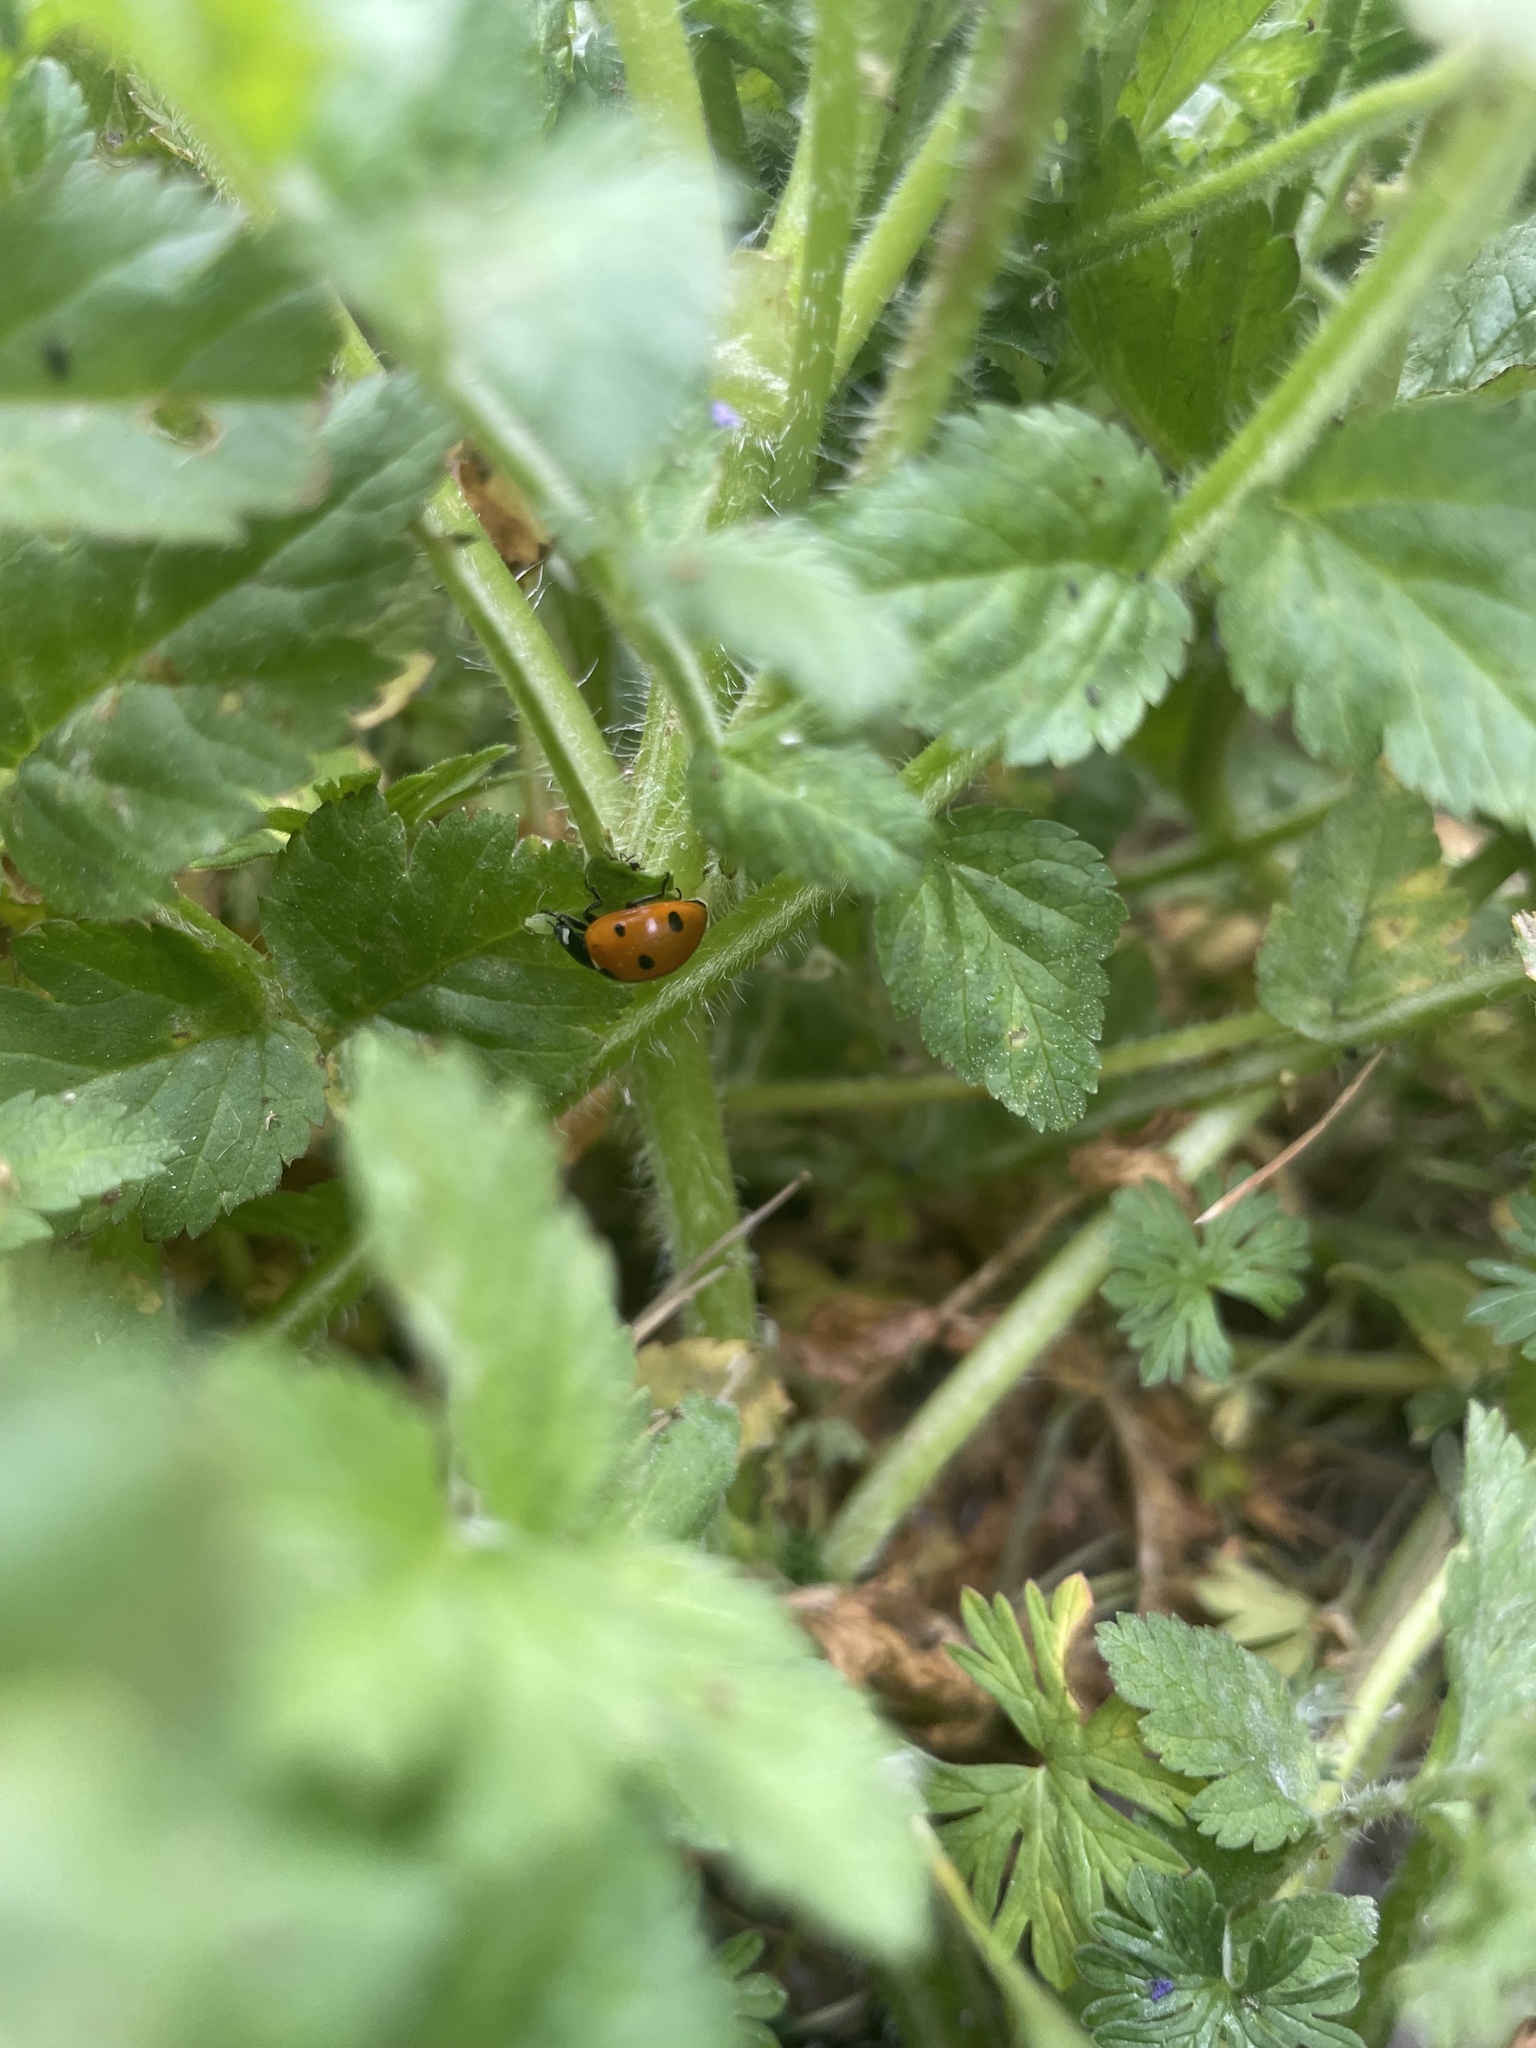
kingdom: Animalia
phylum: Arthropoda
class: Insecta
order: Coleoptera
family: Coccinellidae
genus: Coccinella
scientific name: Coccinella septempunctata
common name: Sevenspotted lady beetle
